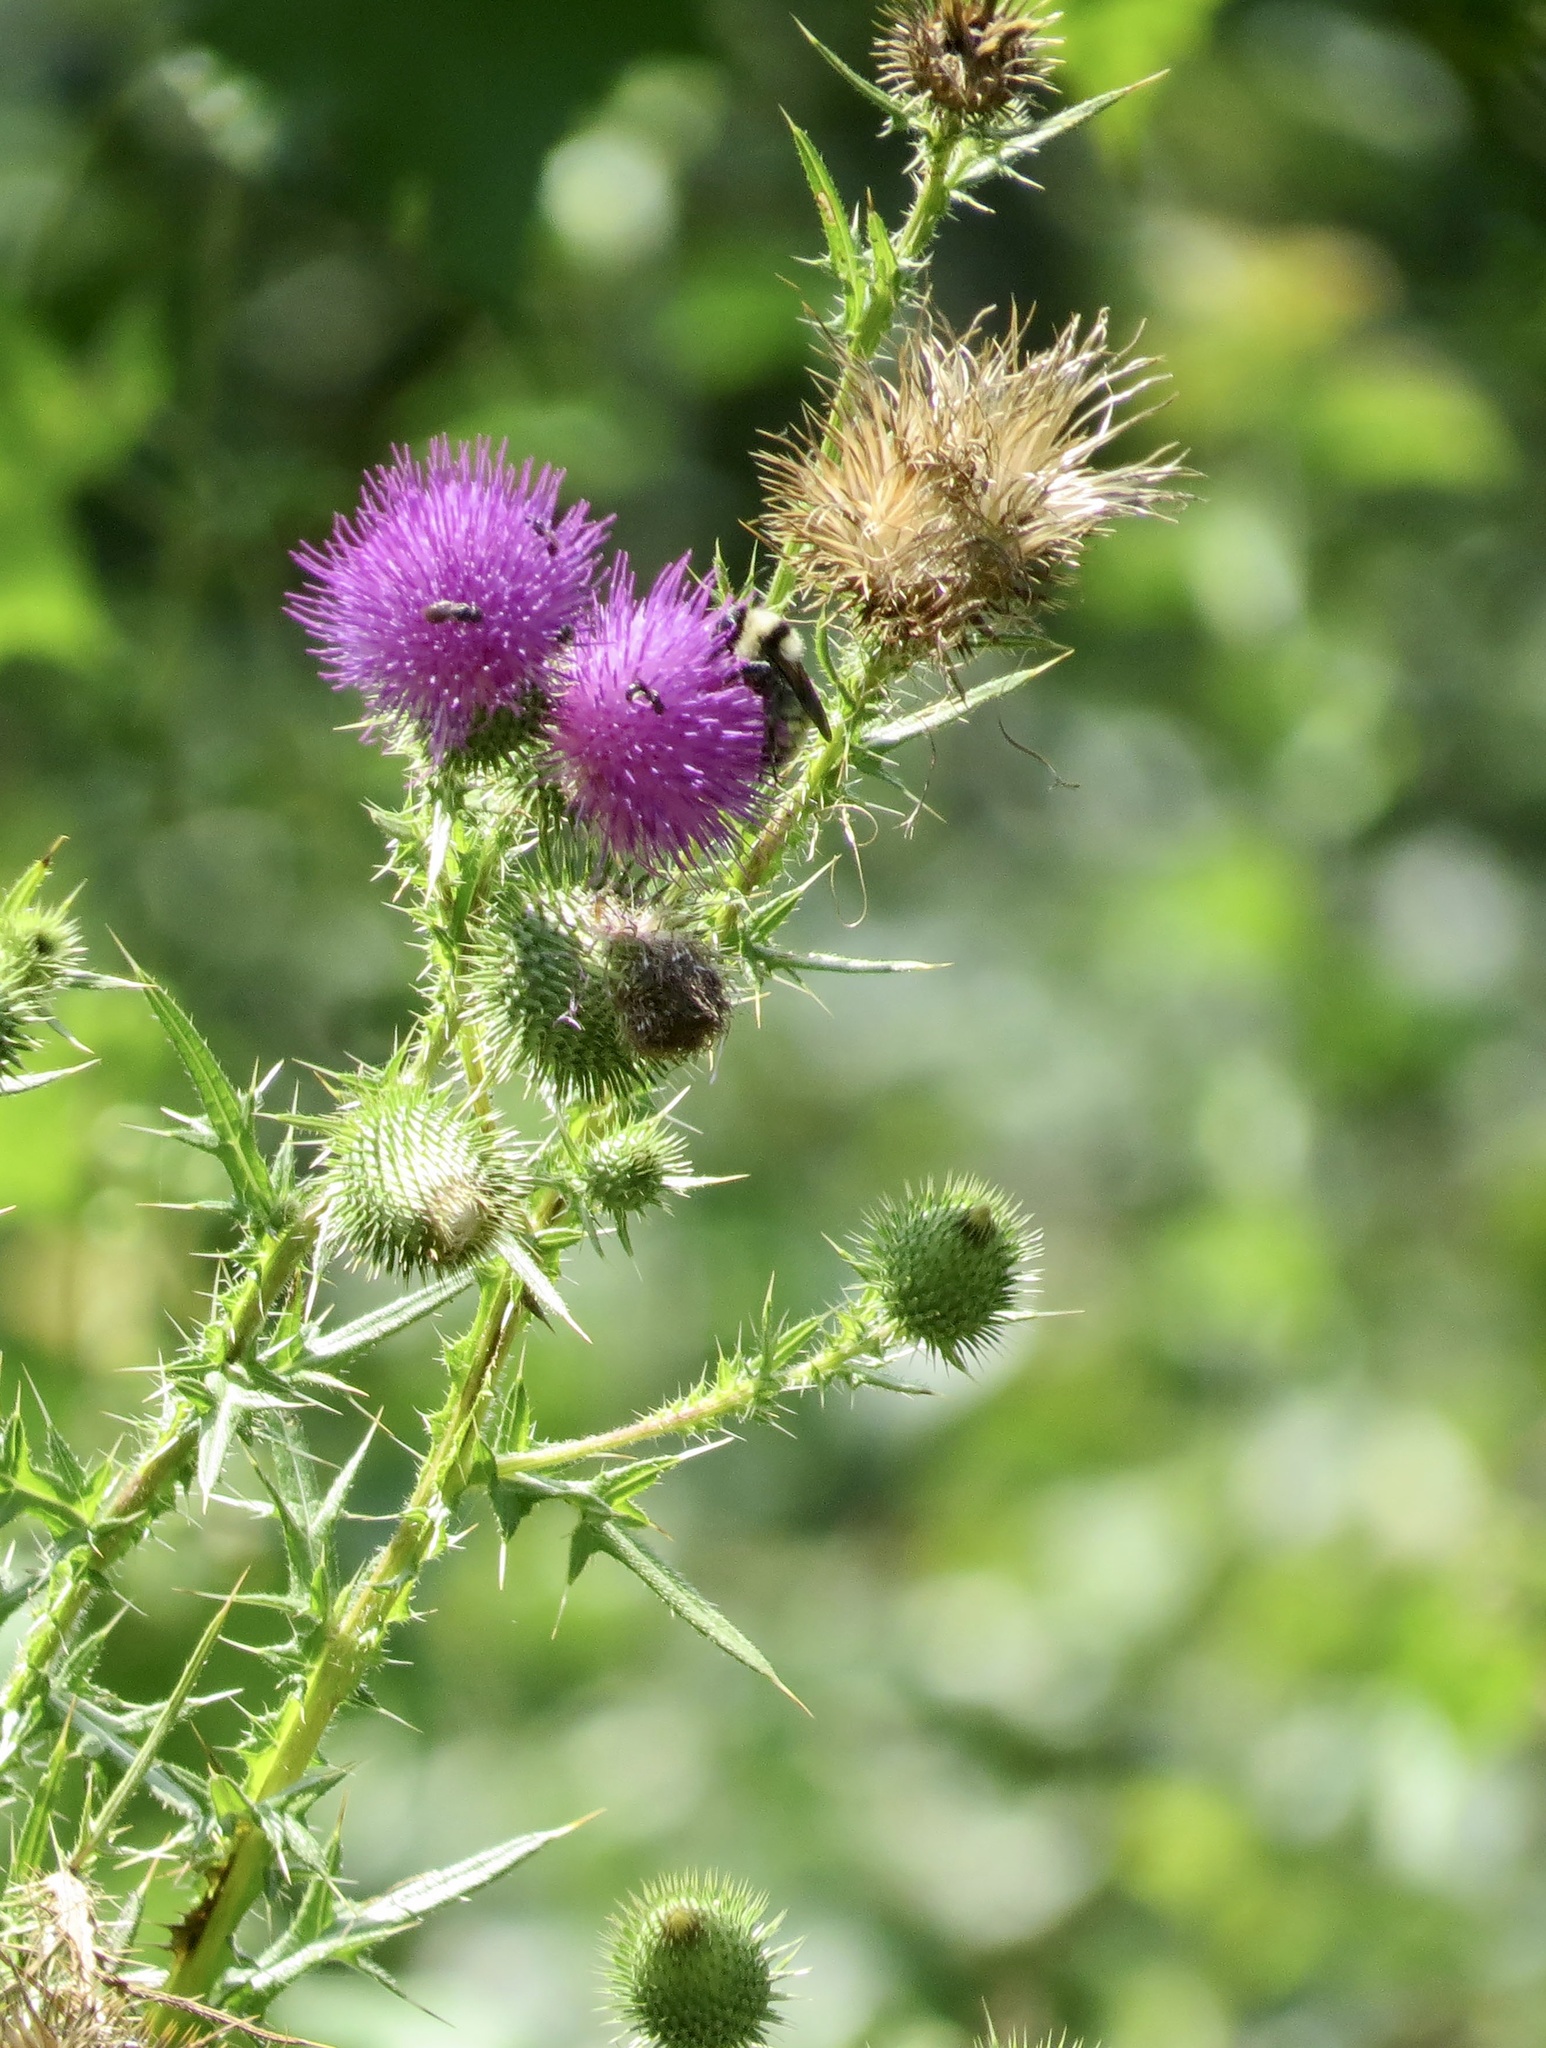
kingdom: Plantae
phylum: Tracheophyta
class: Magnoliopsida
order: Asterales
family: Asteraceae
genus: Cirsium
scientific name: Cirsium vulgare
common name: Bull thistle
